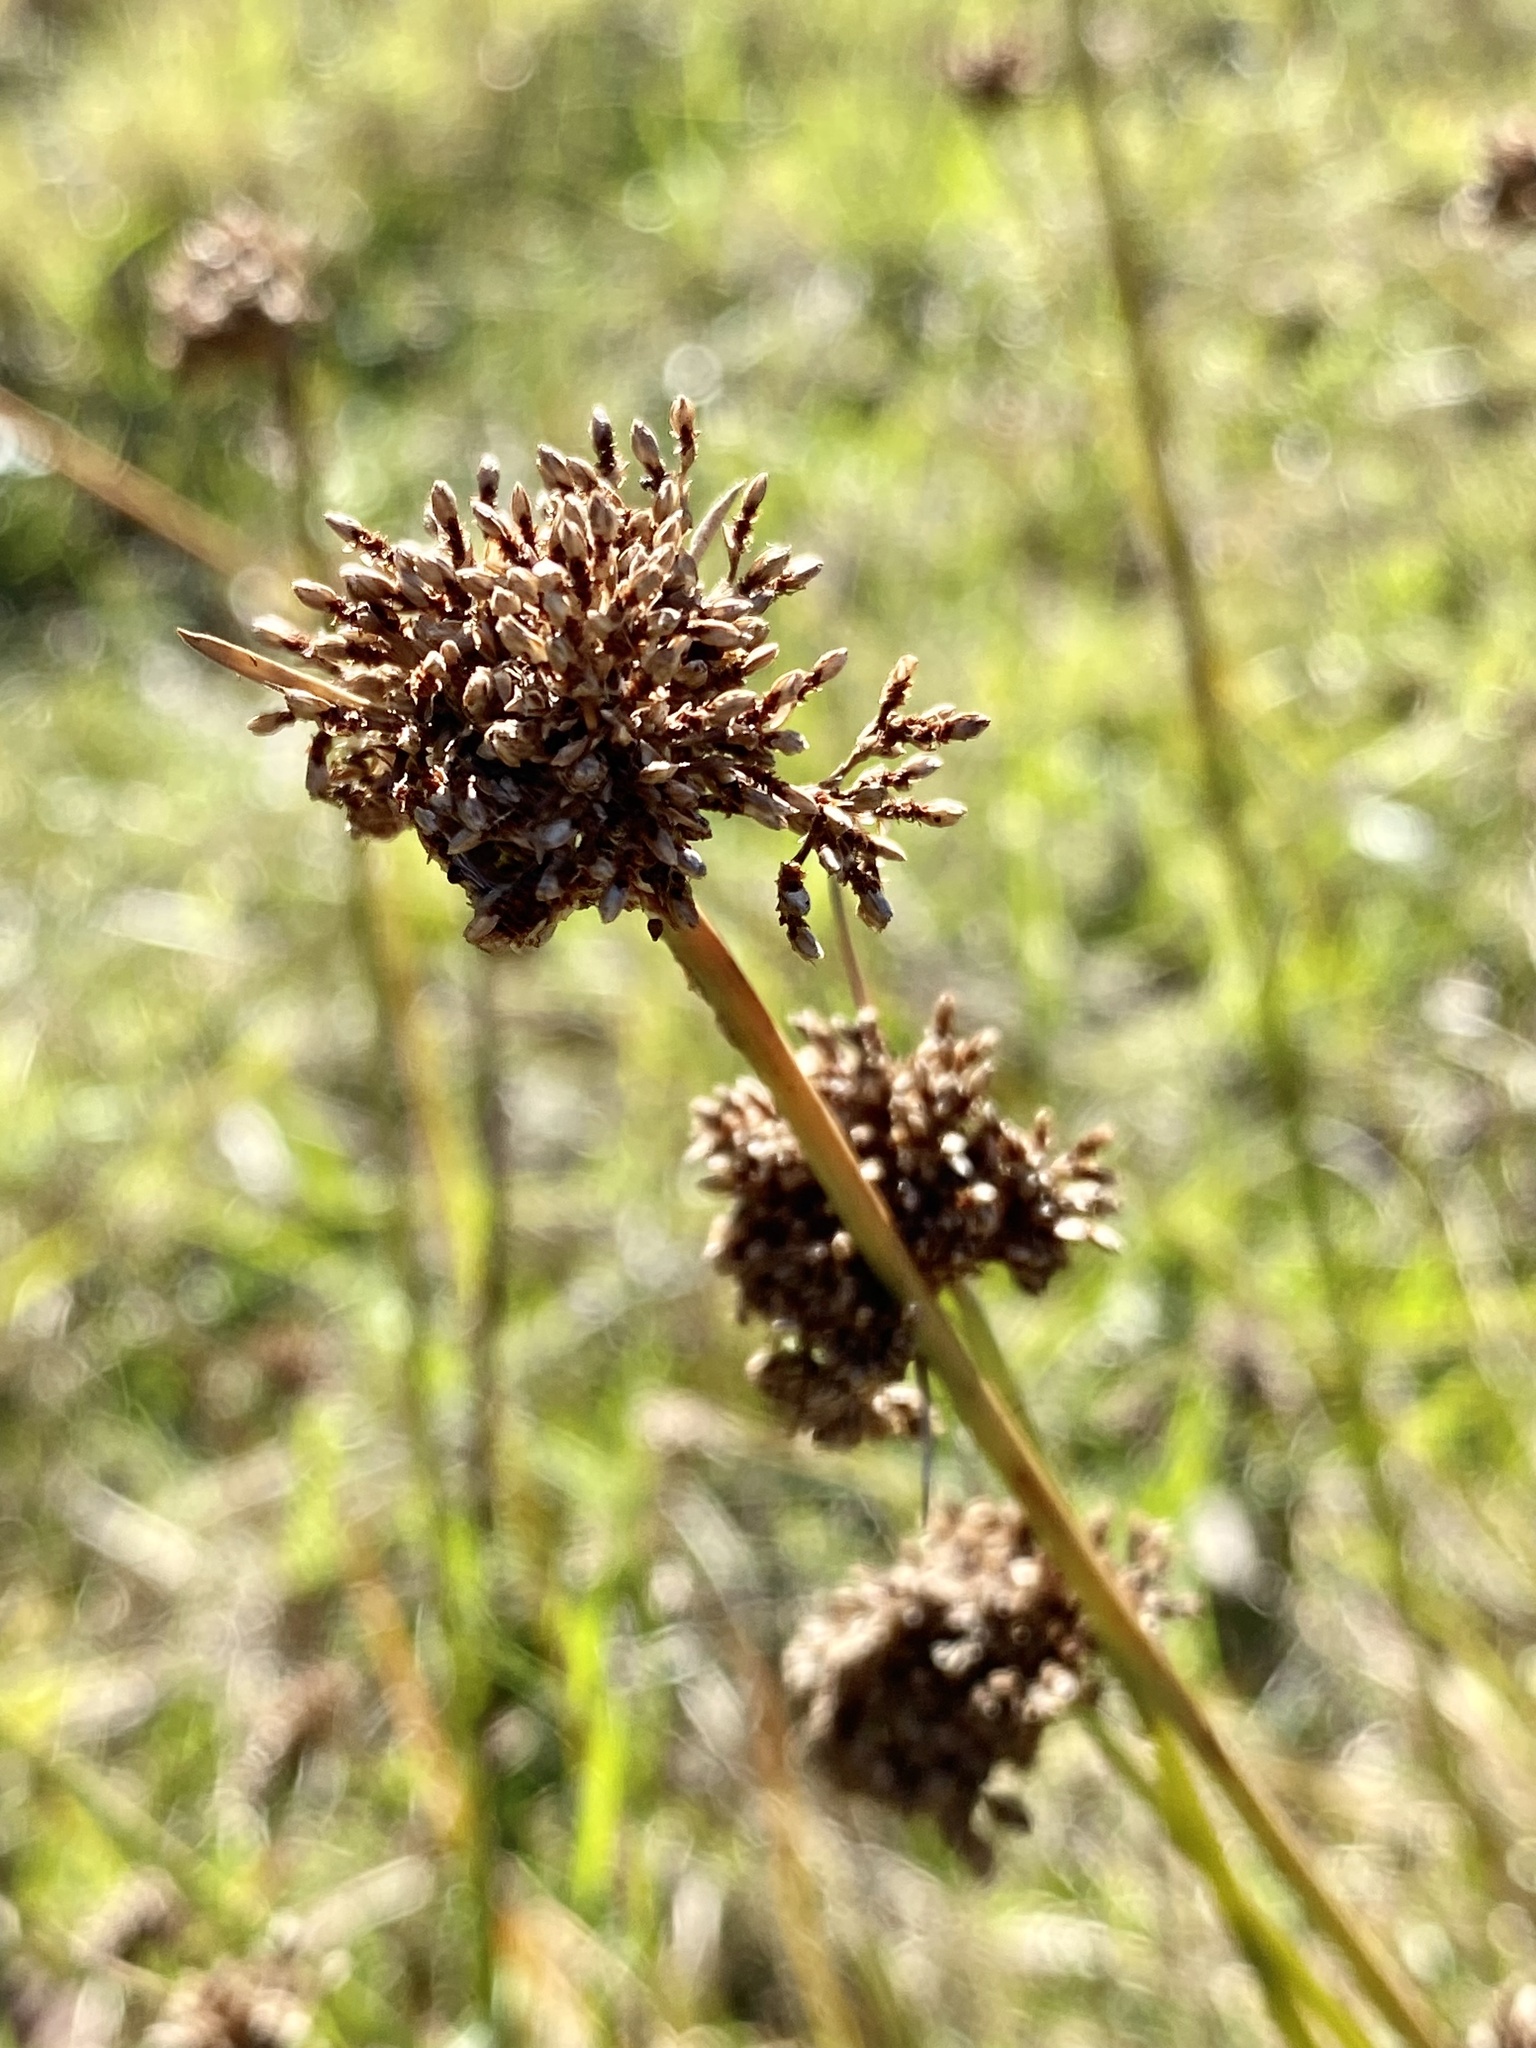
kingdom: Plantae
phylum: Tracheophyta
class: Liliopsida
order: Poales
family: Cyperaceae
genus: Fimbristylis
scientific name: Fimbristylis cymosa
